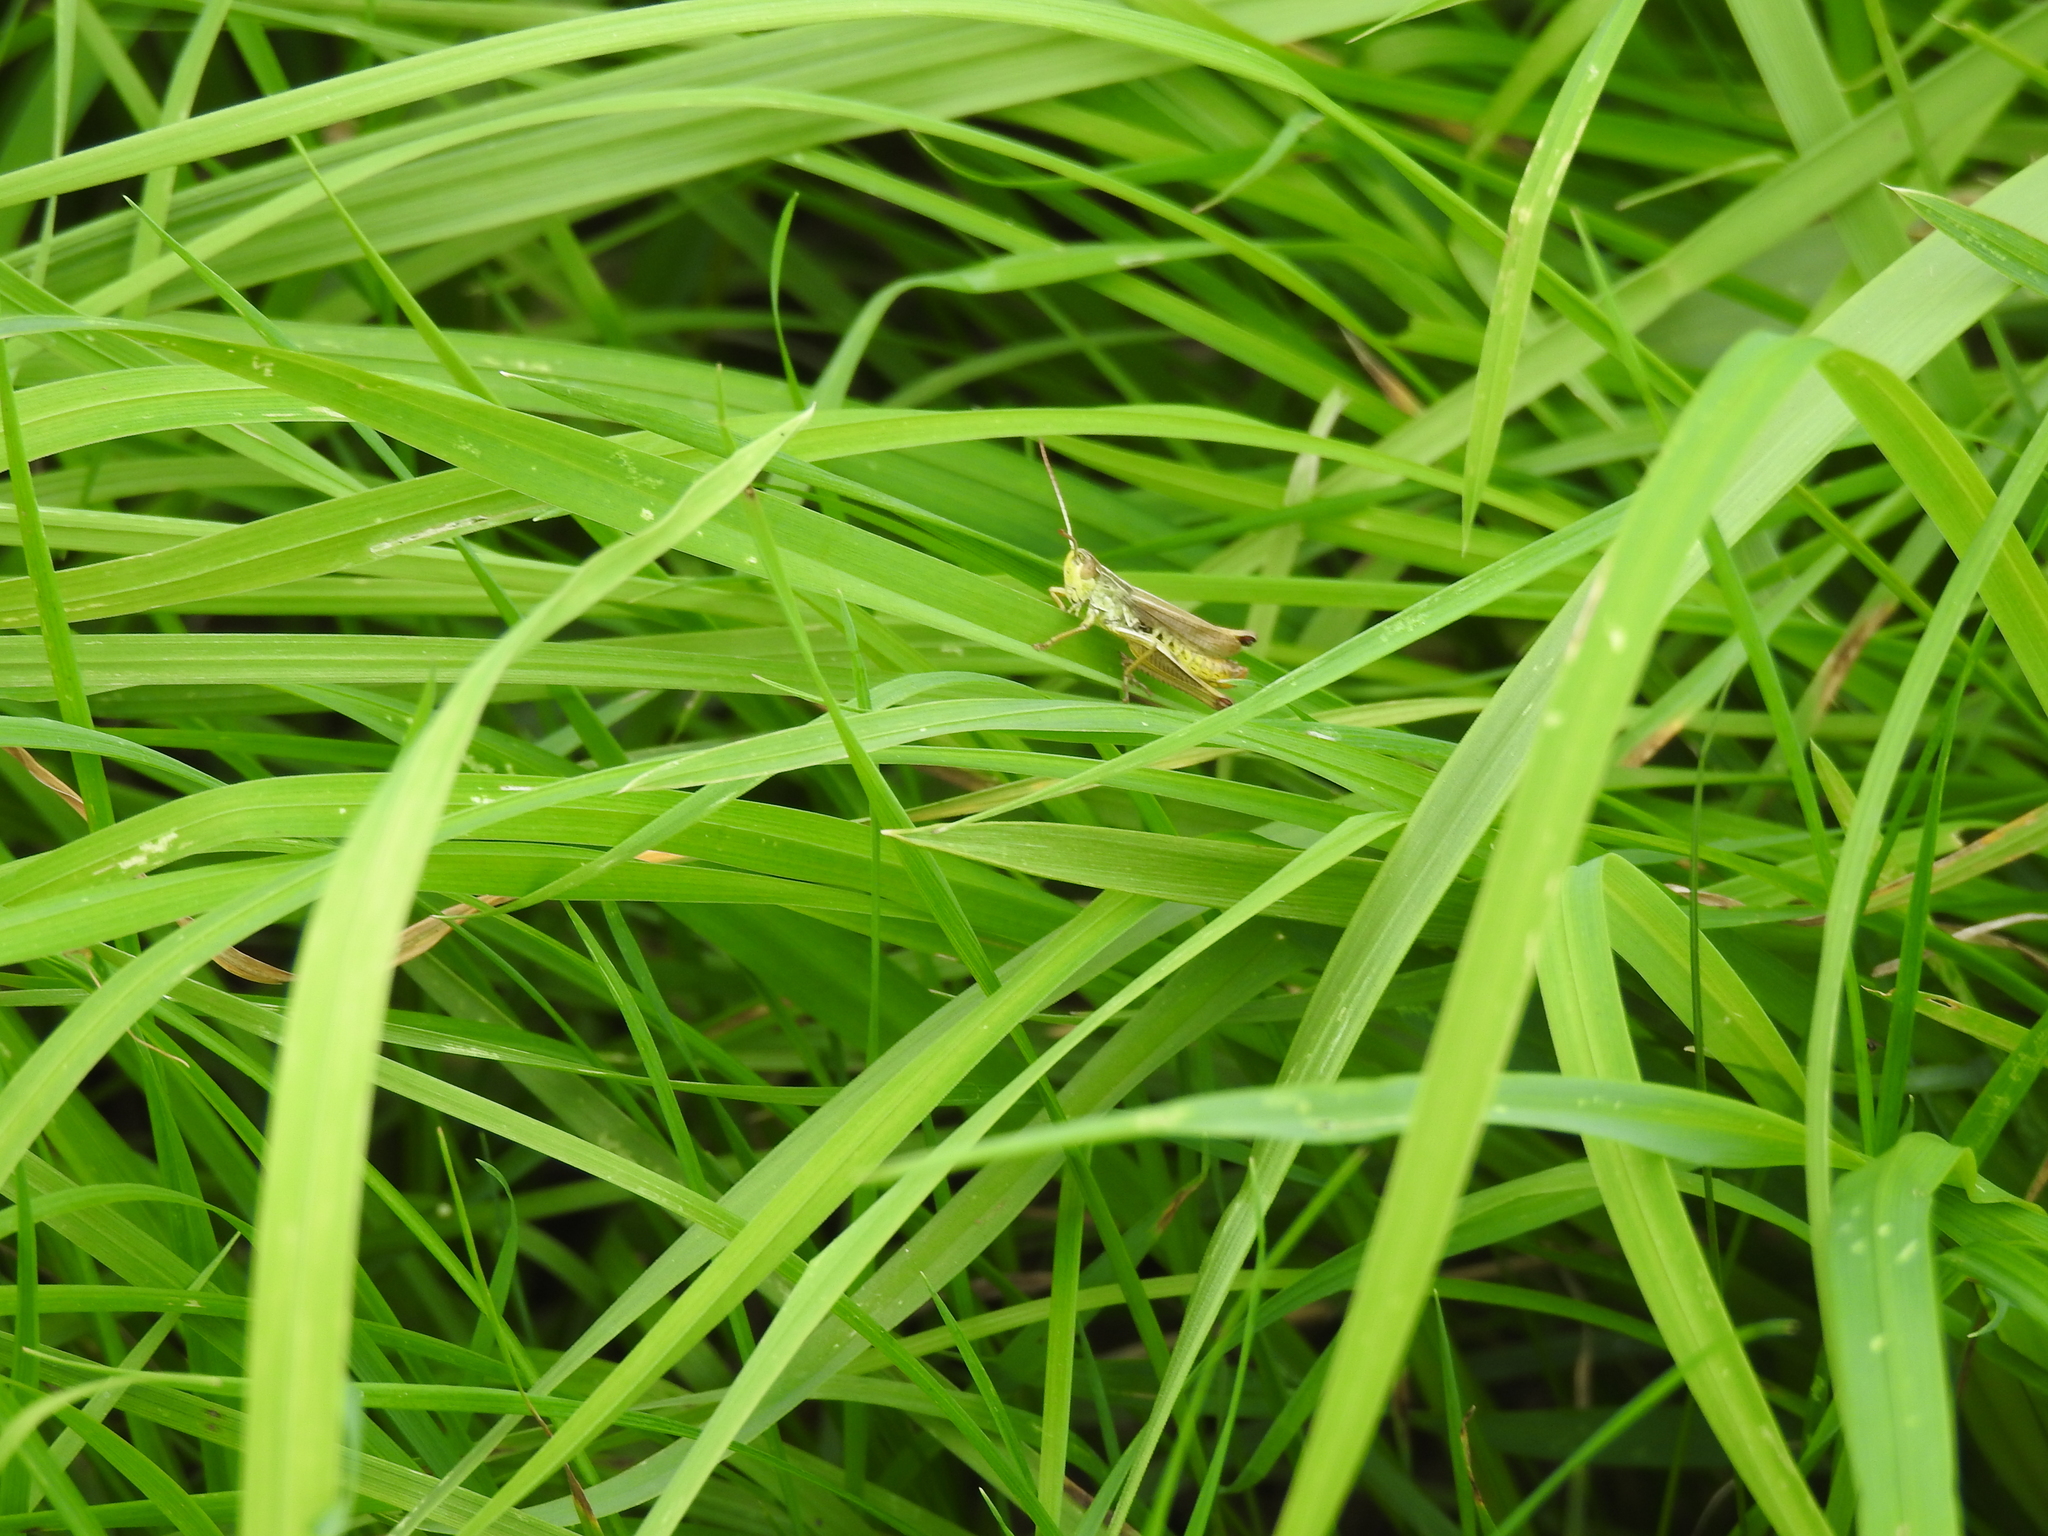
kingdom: Animalia
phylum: Arthropoda
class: Insecta
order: Orthoptera
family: Acrididae
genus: Pseudochorthippus
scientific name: Pseudochorthippus parallelus
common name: Meadow grasshopper
